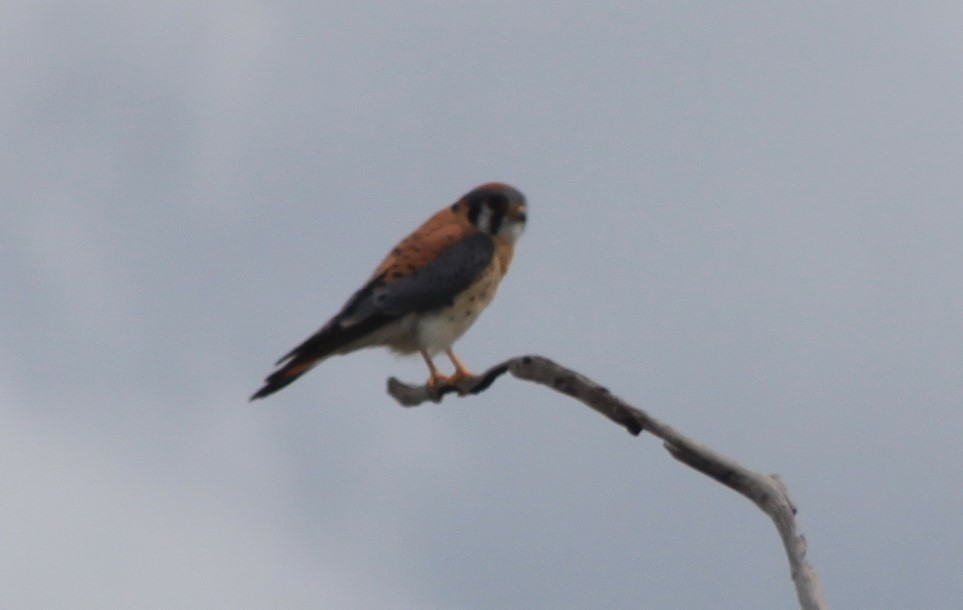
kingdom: Animalia
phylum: Chordata
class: Aves
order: Falconiformes
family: Falconidae
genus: Falco
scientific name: Falco sparverius
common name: American kestrel
